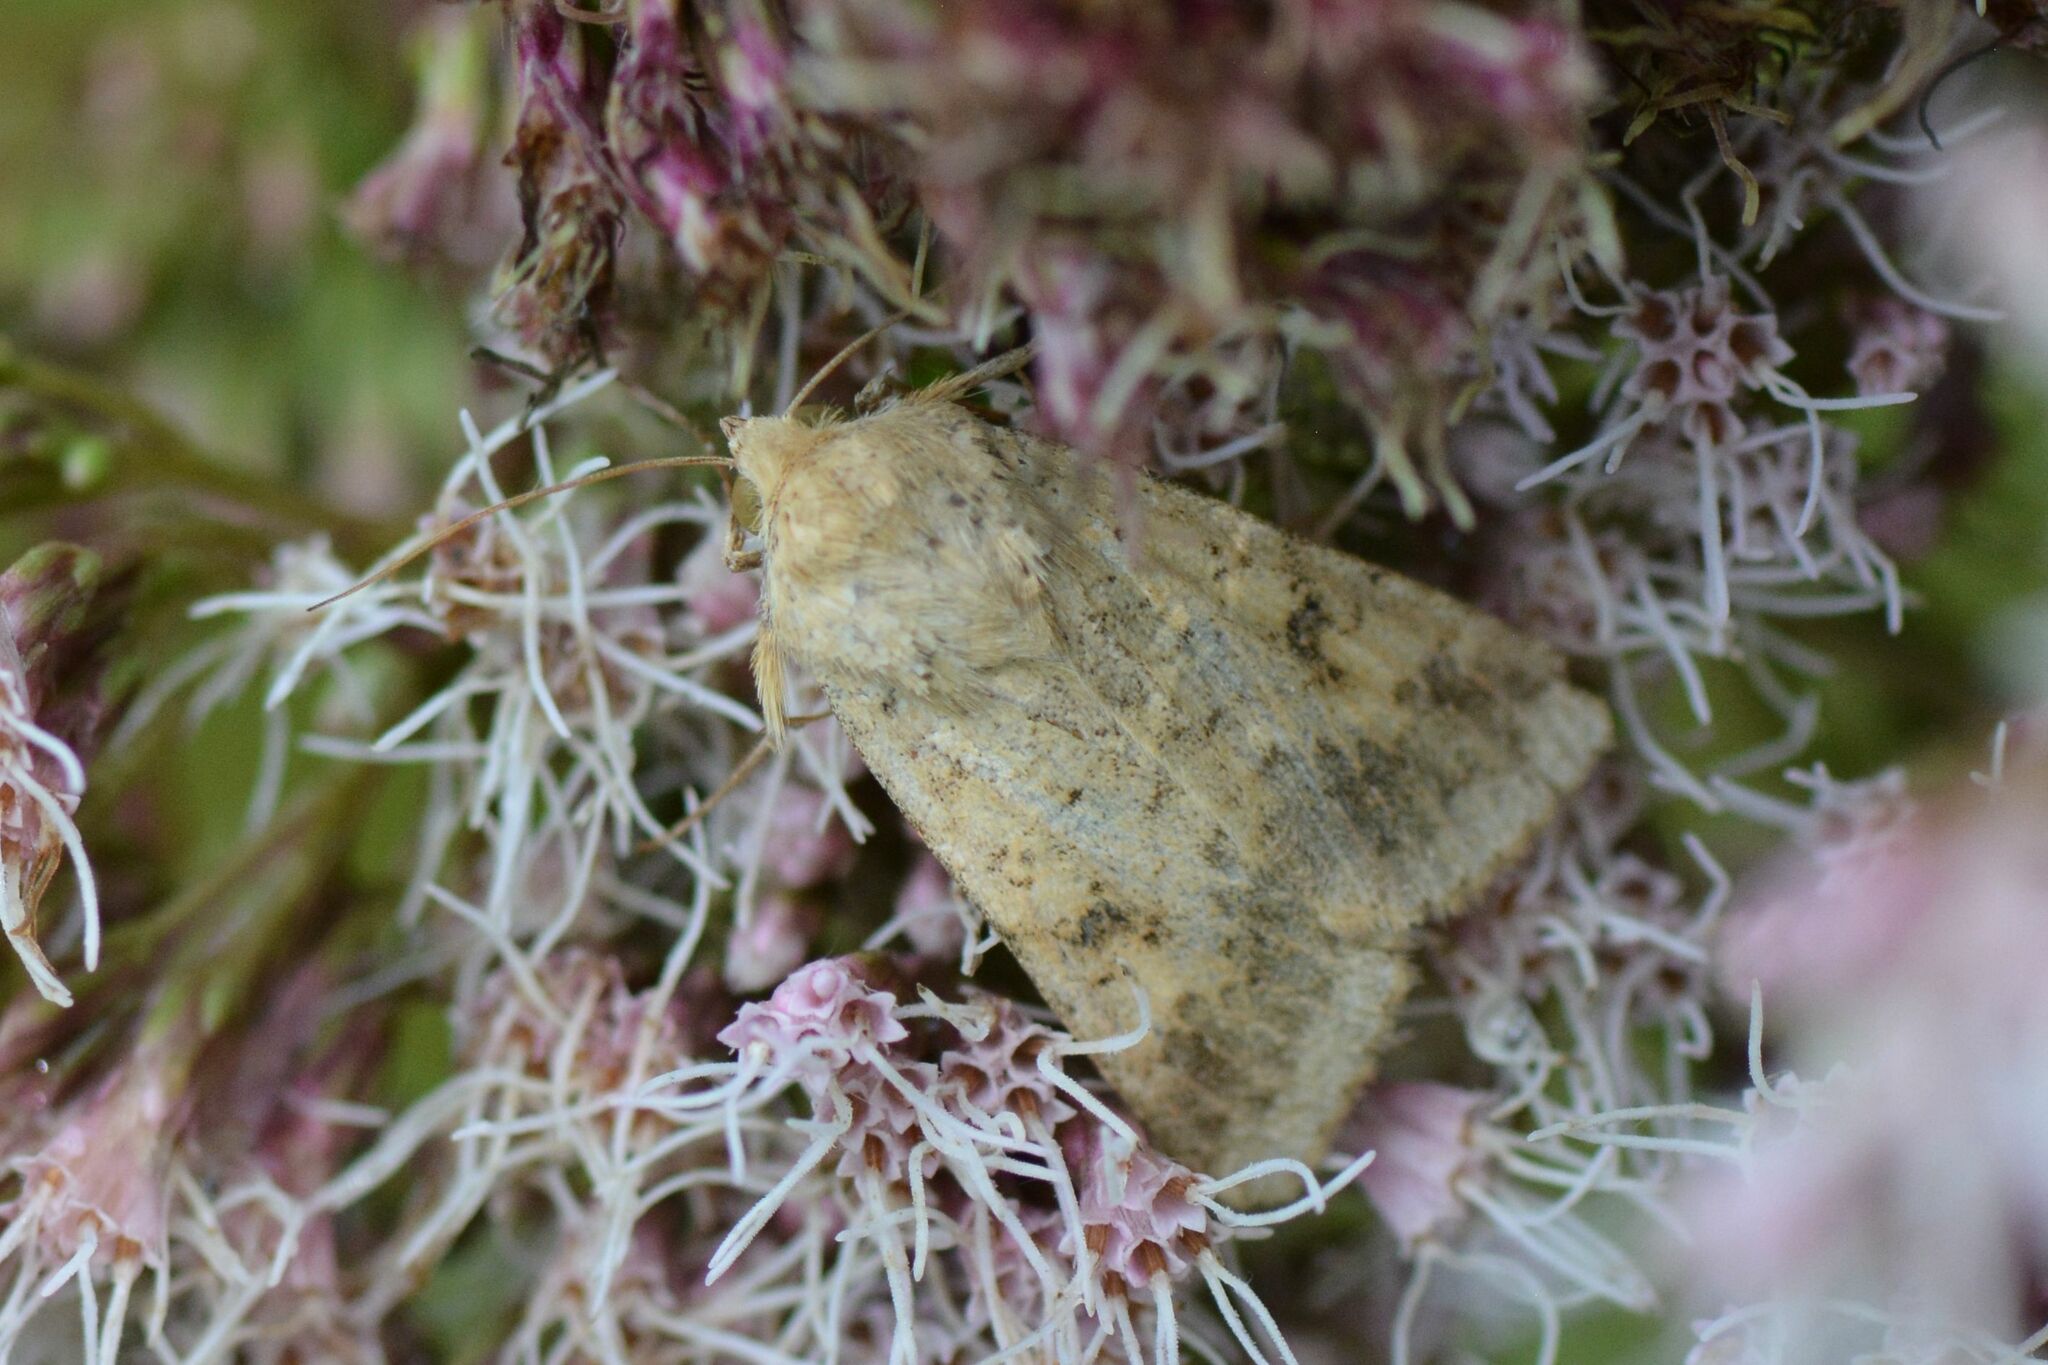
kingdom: Animalia
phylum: Arthropoda
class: Insecta
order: Lepidoptera
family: Noctuidae
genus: Helicoverpa
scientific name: Helicoverpa armigera
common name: Cotton bollworm
